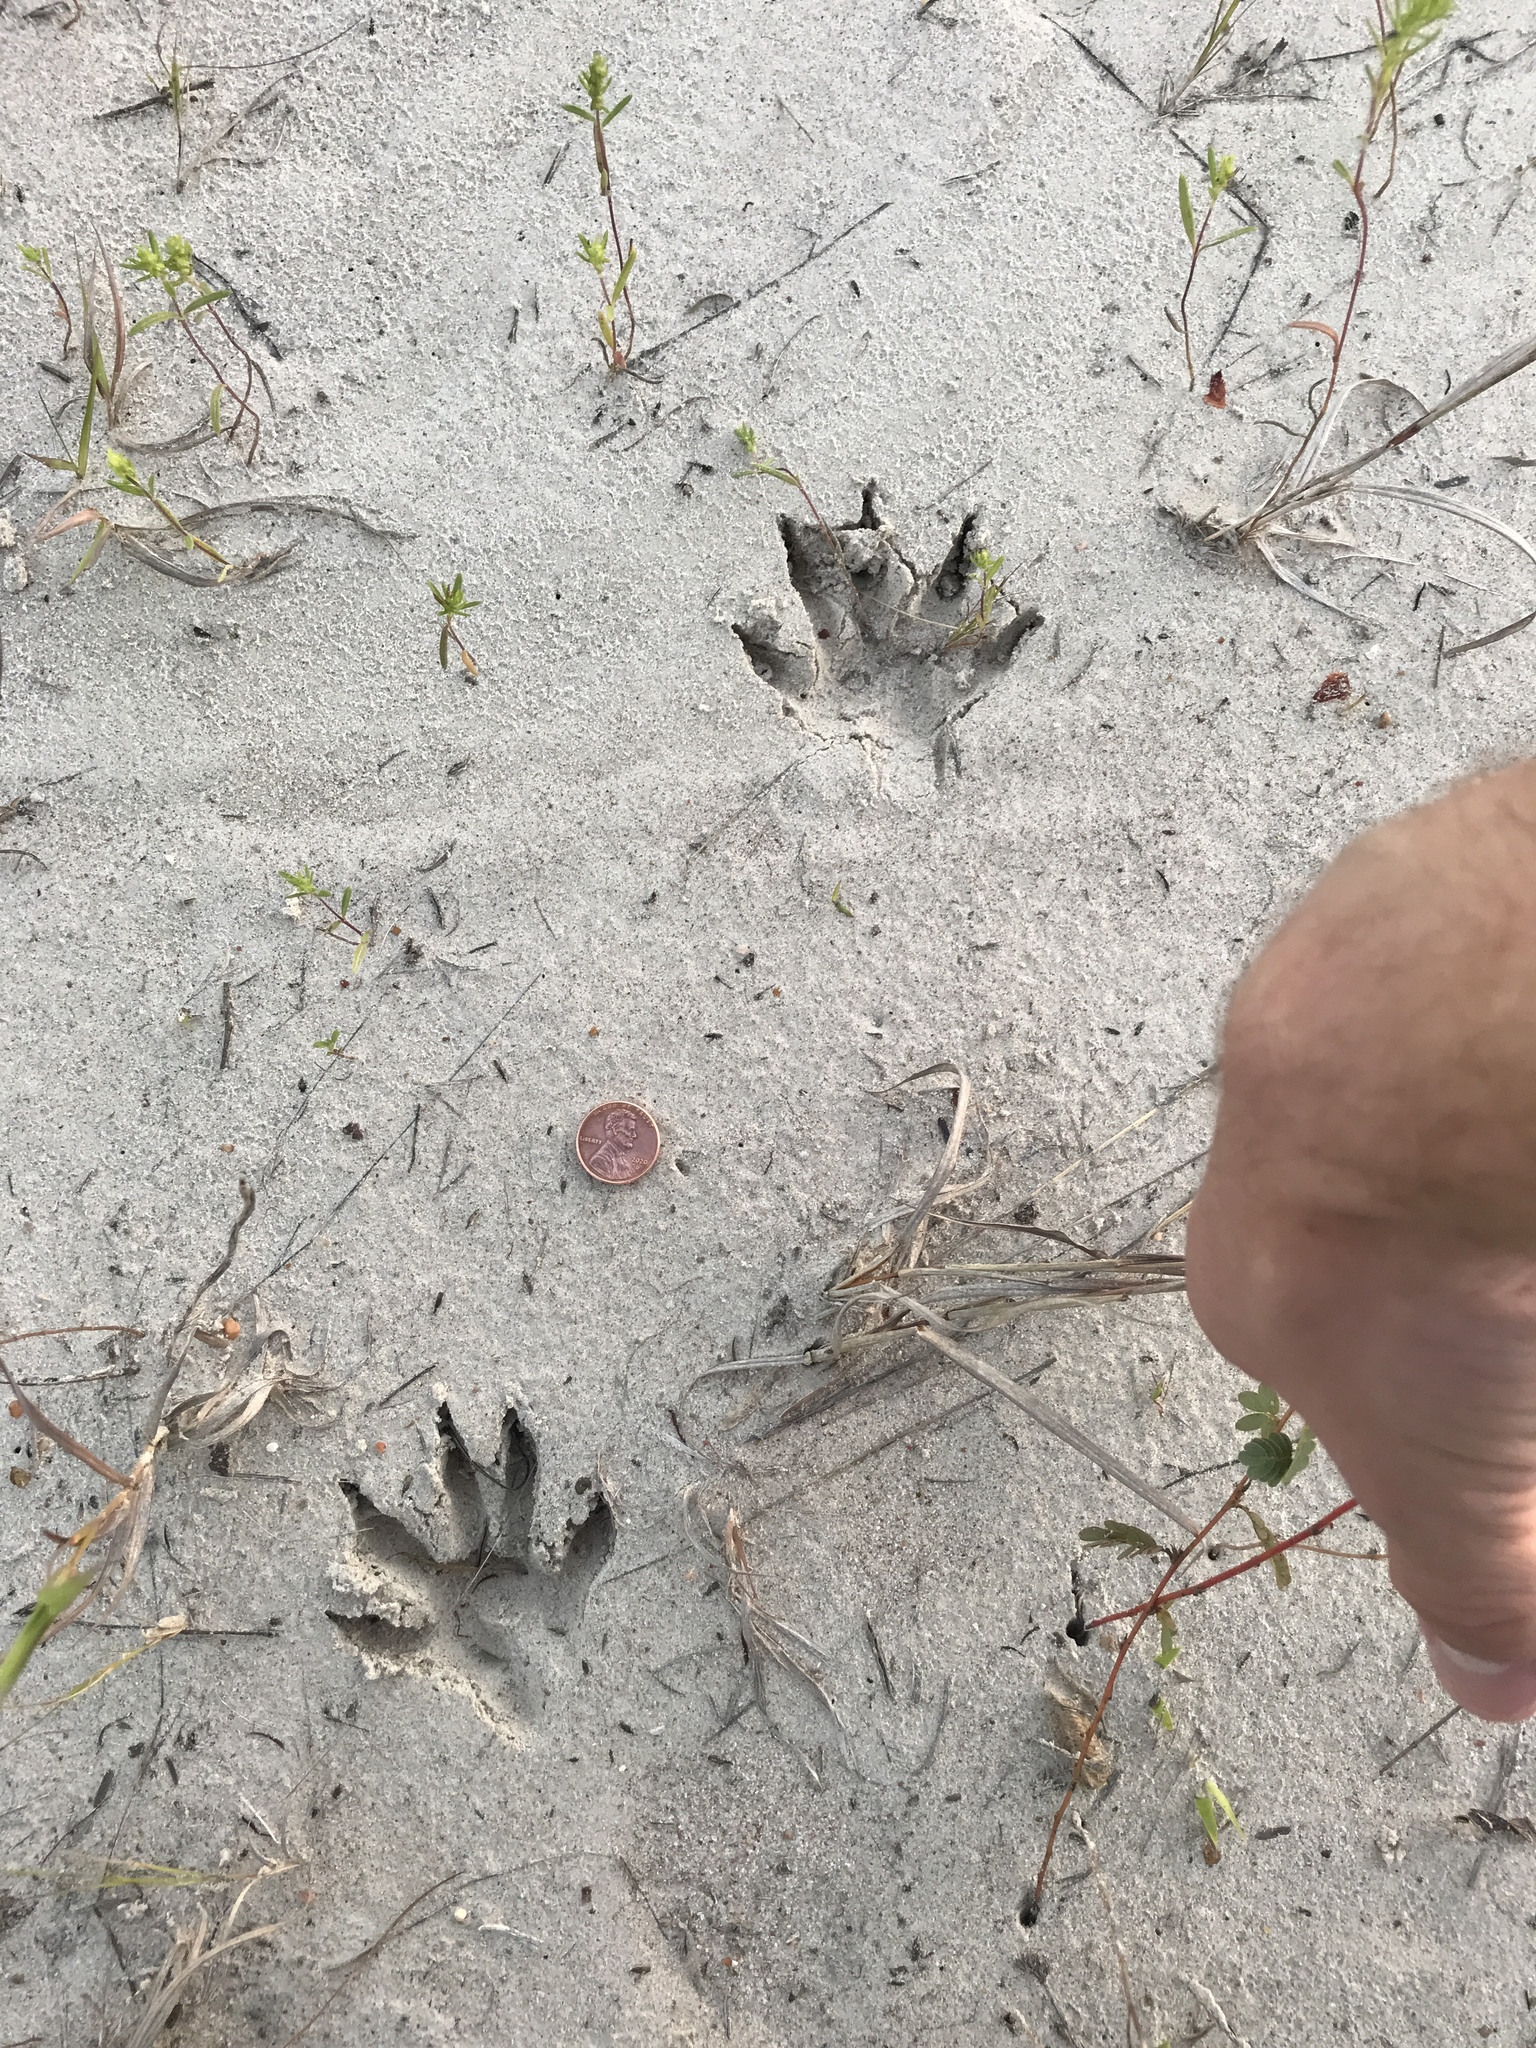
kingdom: Animalia
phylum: Chordata
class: Mammalia
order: Carnivora
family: Procyonidae
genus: Procyon
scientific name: Procyon lotor
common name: Raccoon
